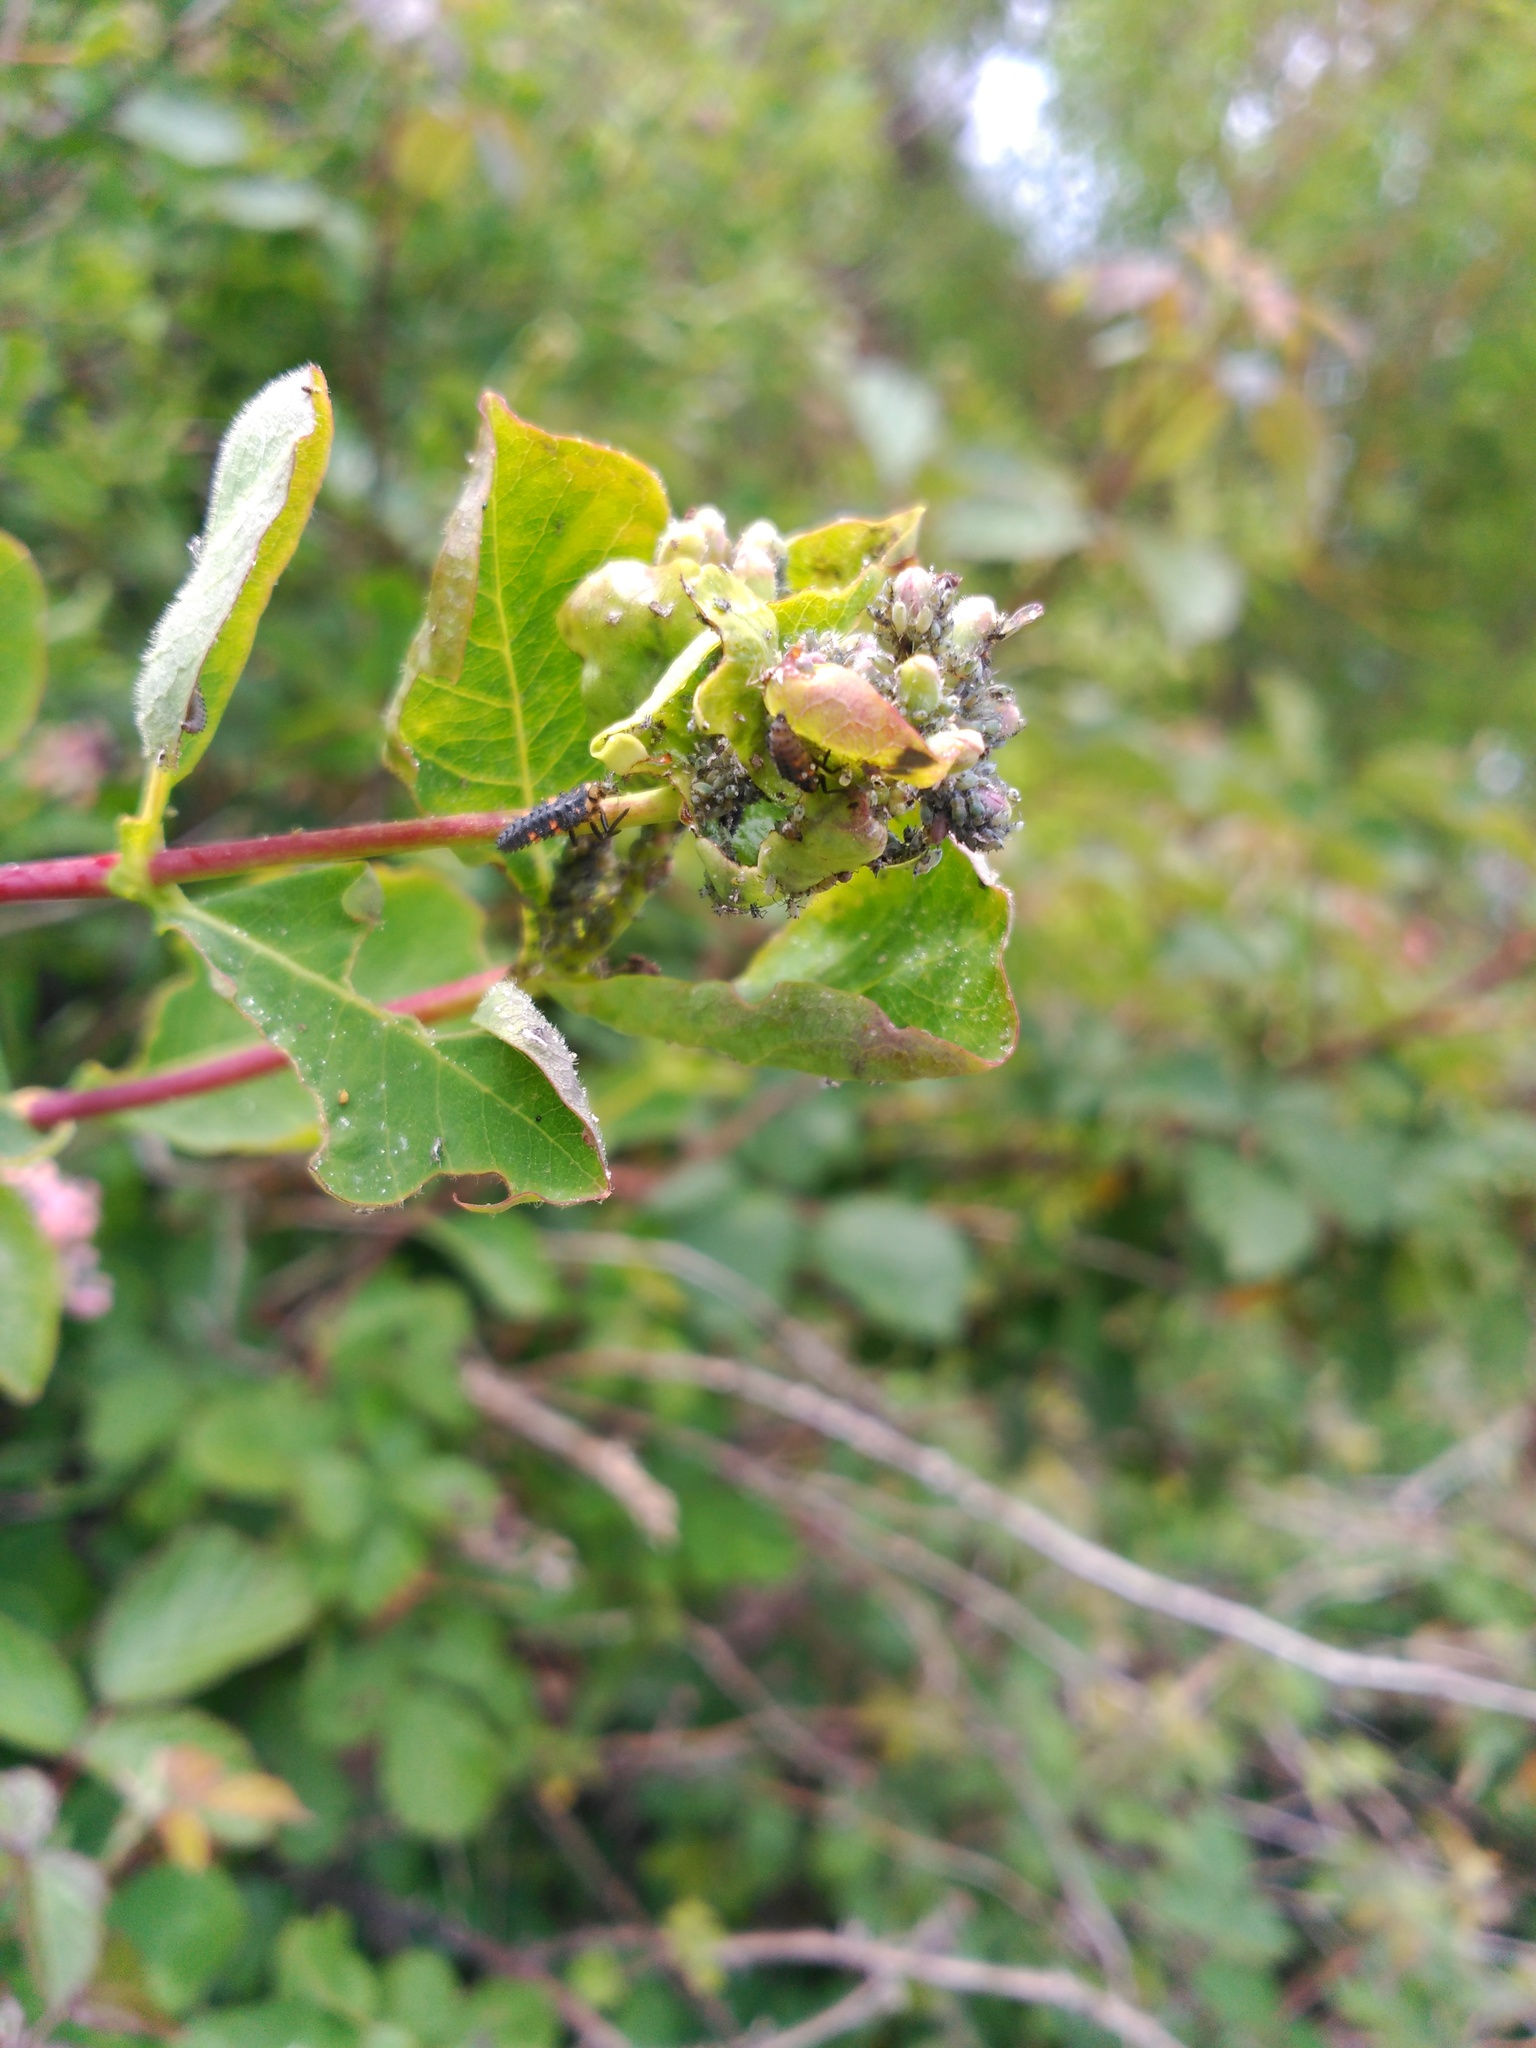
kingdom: Animalia
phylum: Arthropoda
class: Insecta
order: Coleoptera
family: Coccinellidae
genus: Coccinella
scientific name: Coccinella septempunctata
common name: Sevenspotted lady beetle
